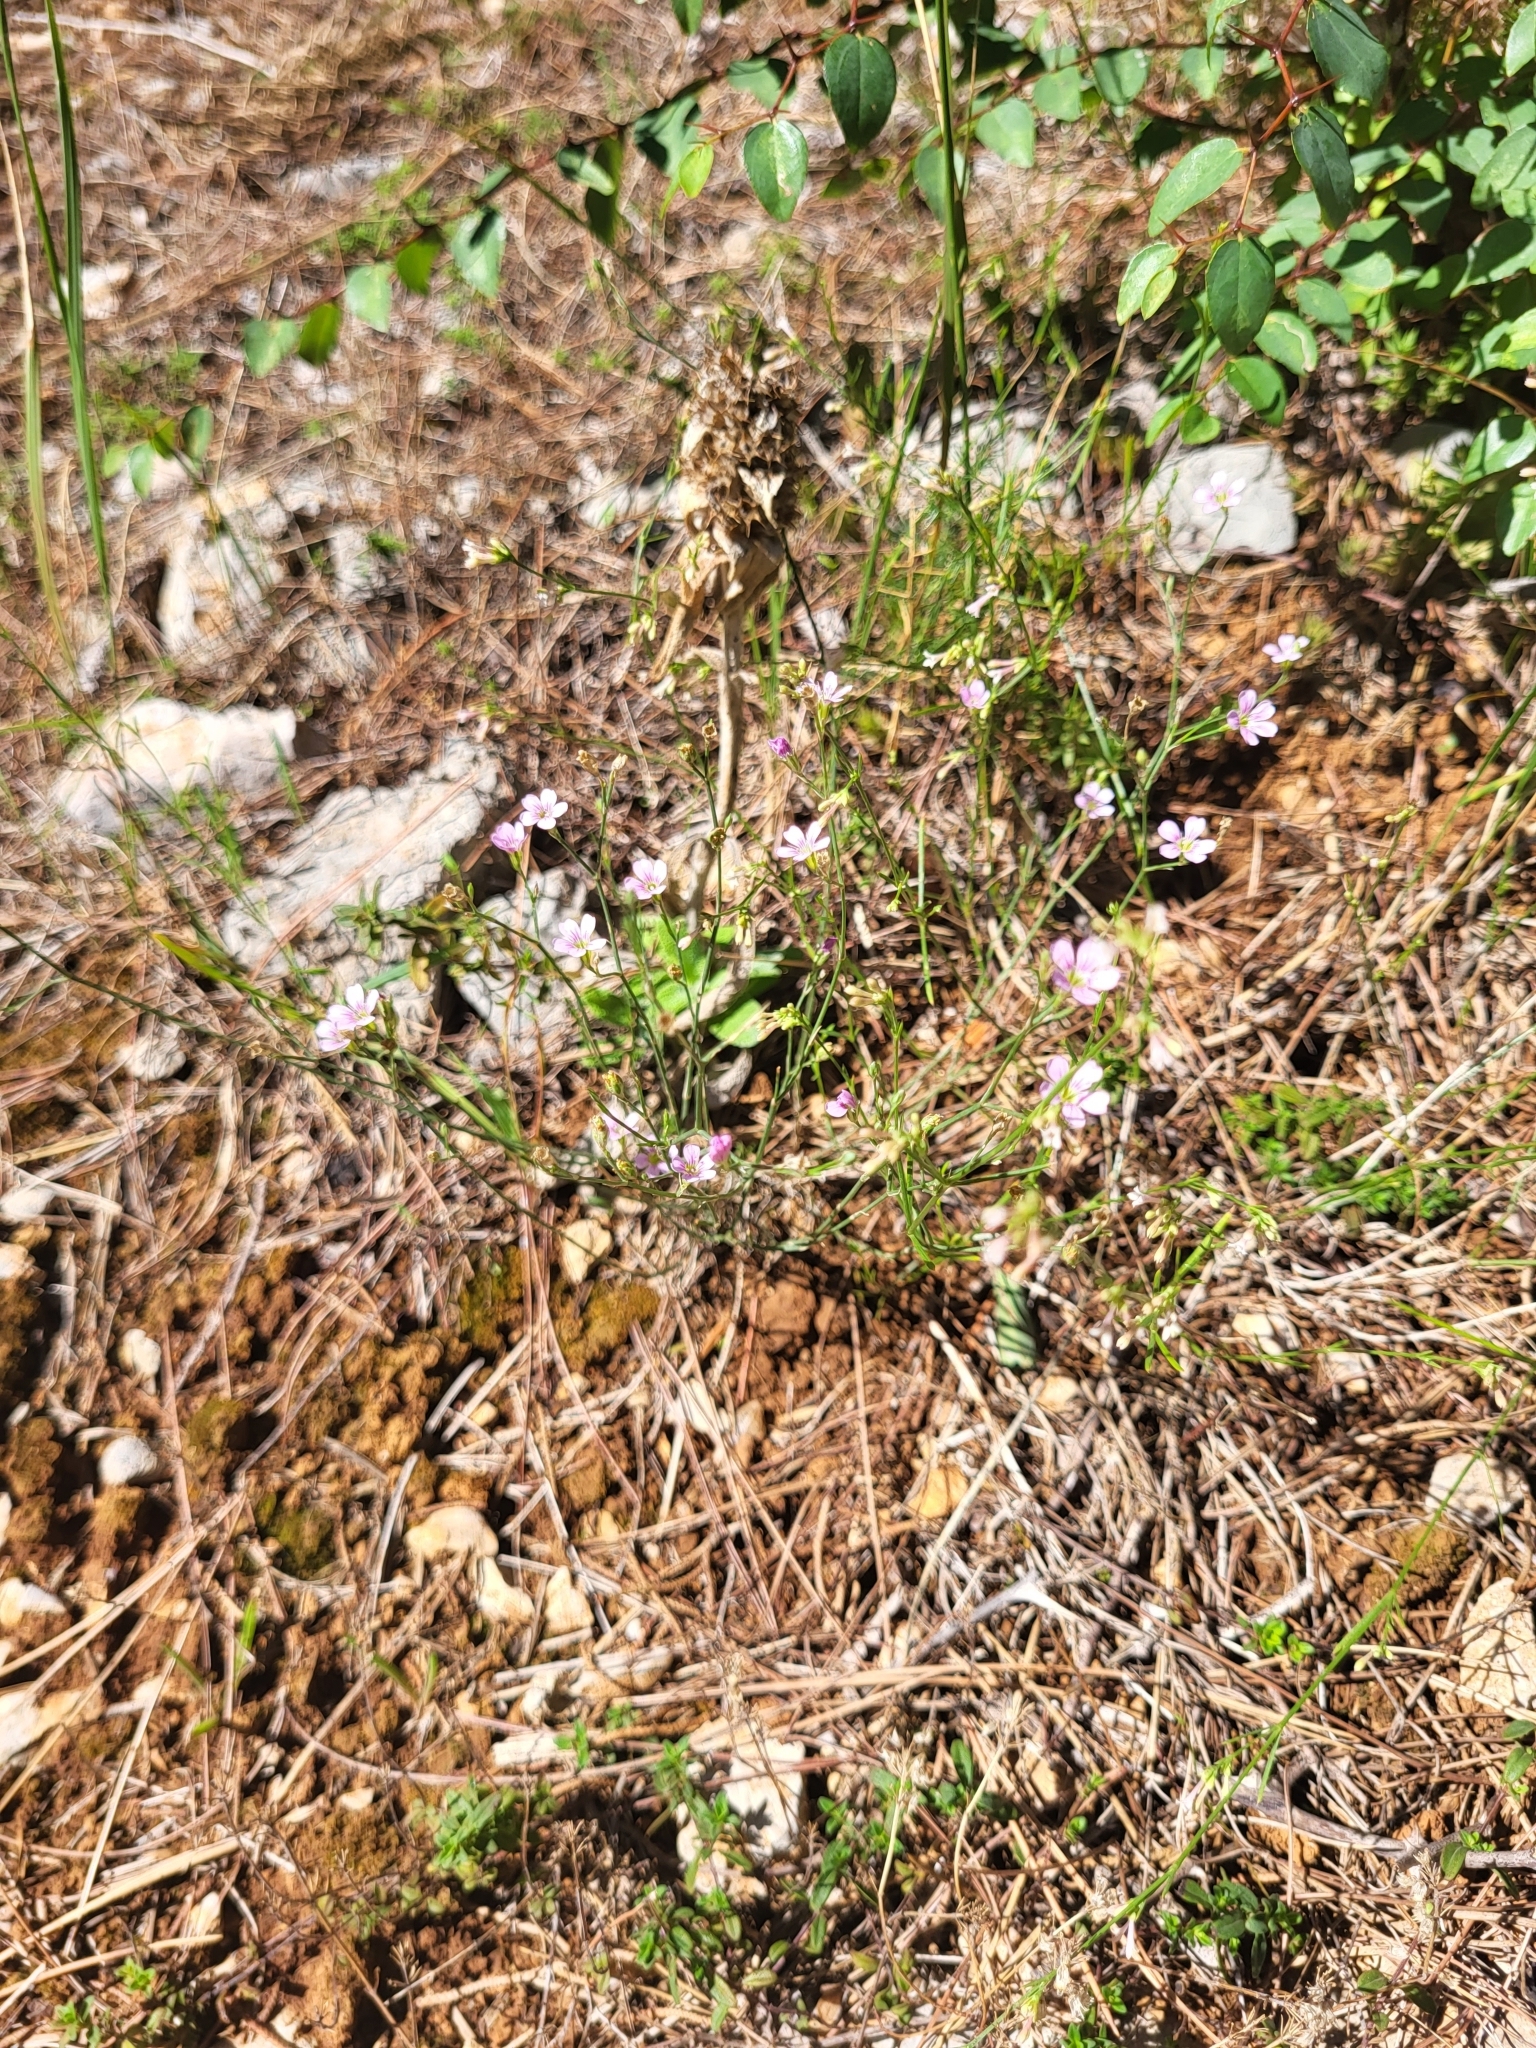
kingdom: Plantae
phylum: Tracheophyta
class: Magnoliopsida
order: Caryophyllales
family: Caryophyllaceae
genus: Petrorhagia
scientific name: Petrorhagia saxifraga
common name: Tunicflower
